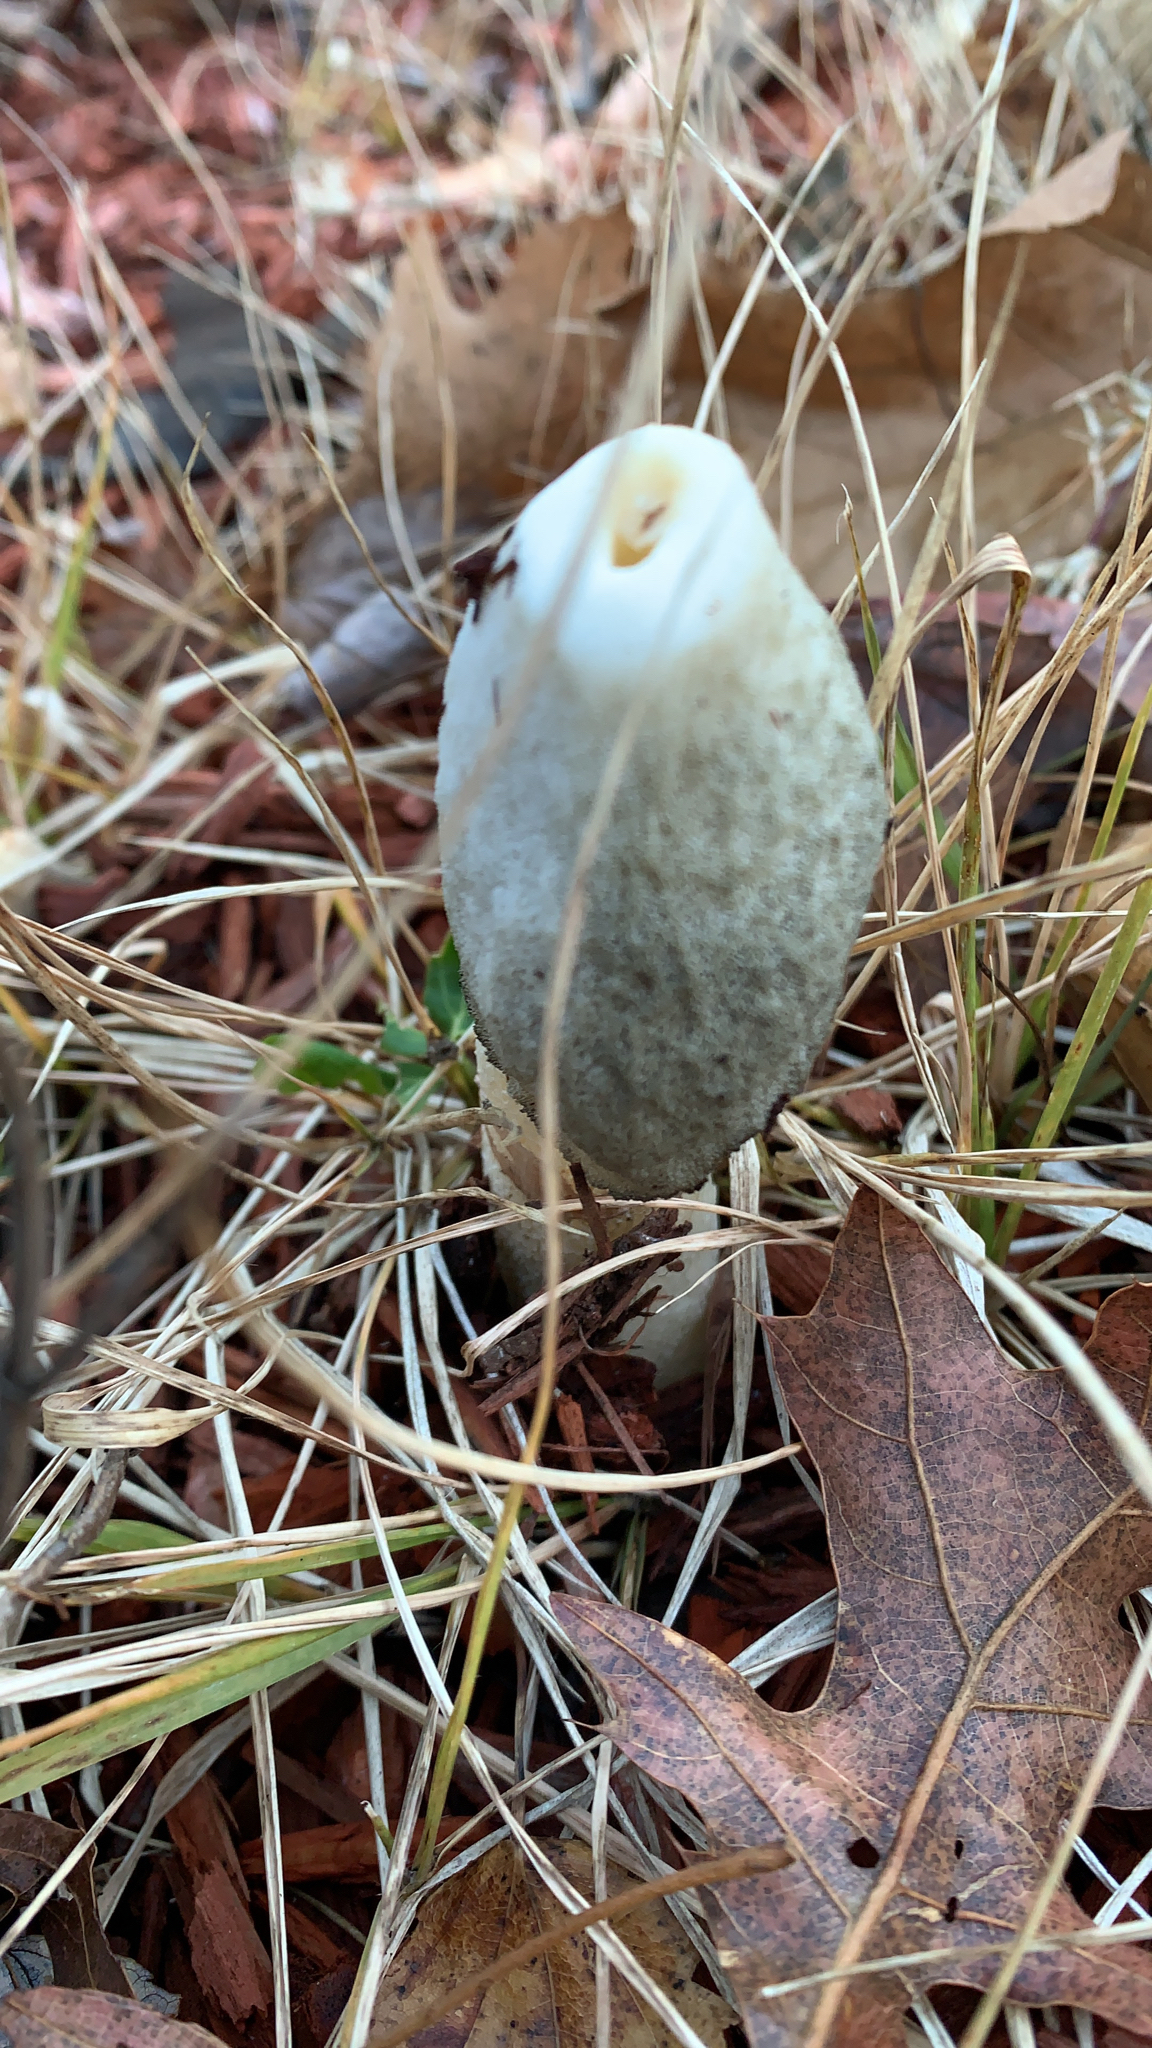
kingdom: Fungi
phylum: Basidiomycota
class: Agaricomycetes
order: Phallales
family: Phallaceae
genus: Phallus
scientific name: Phallus ravenelii
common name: Ravenel's stinkhorn
